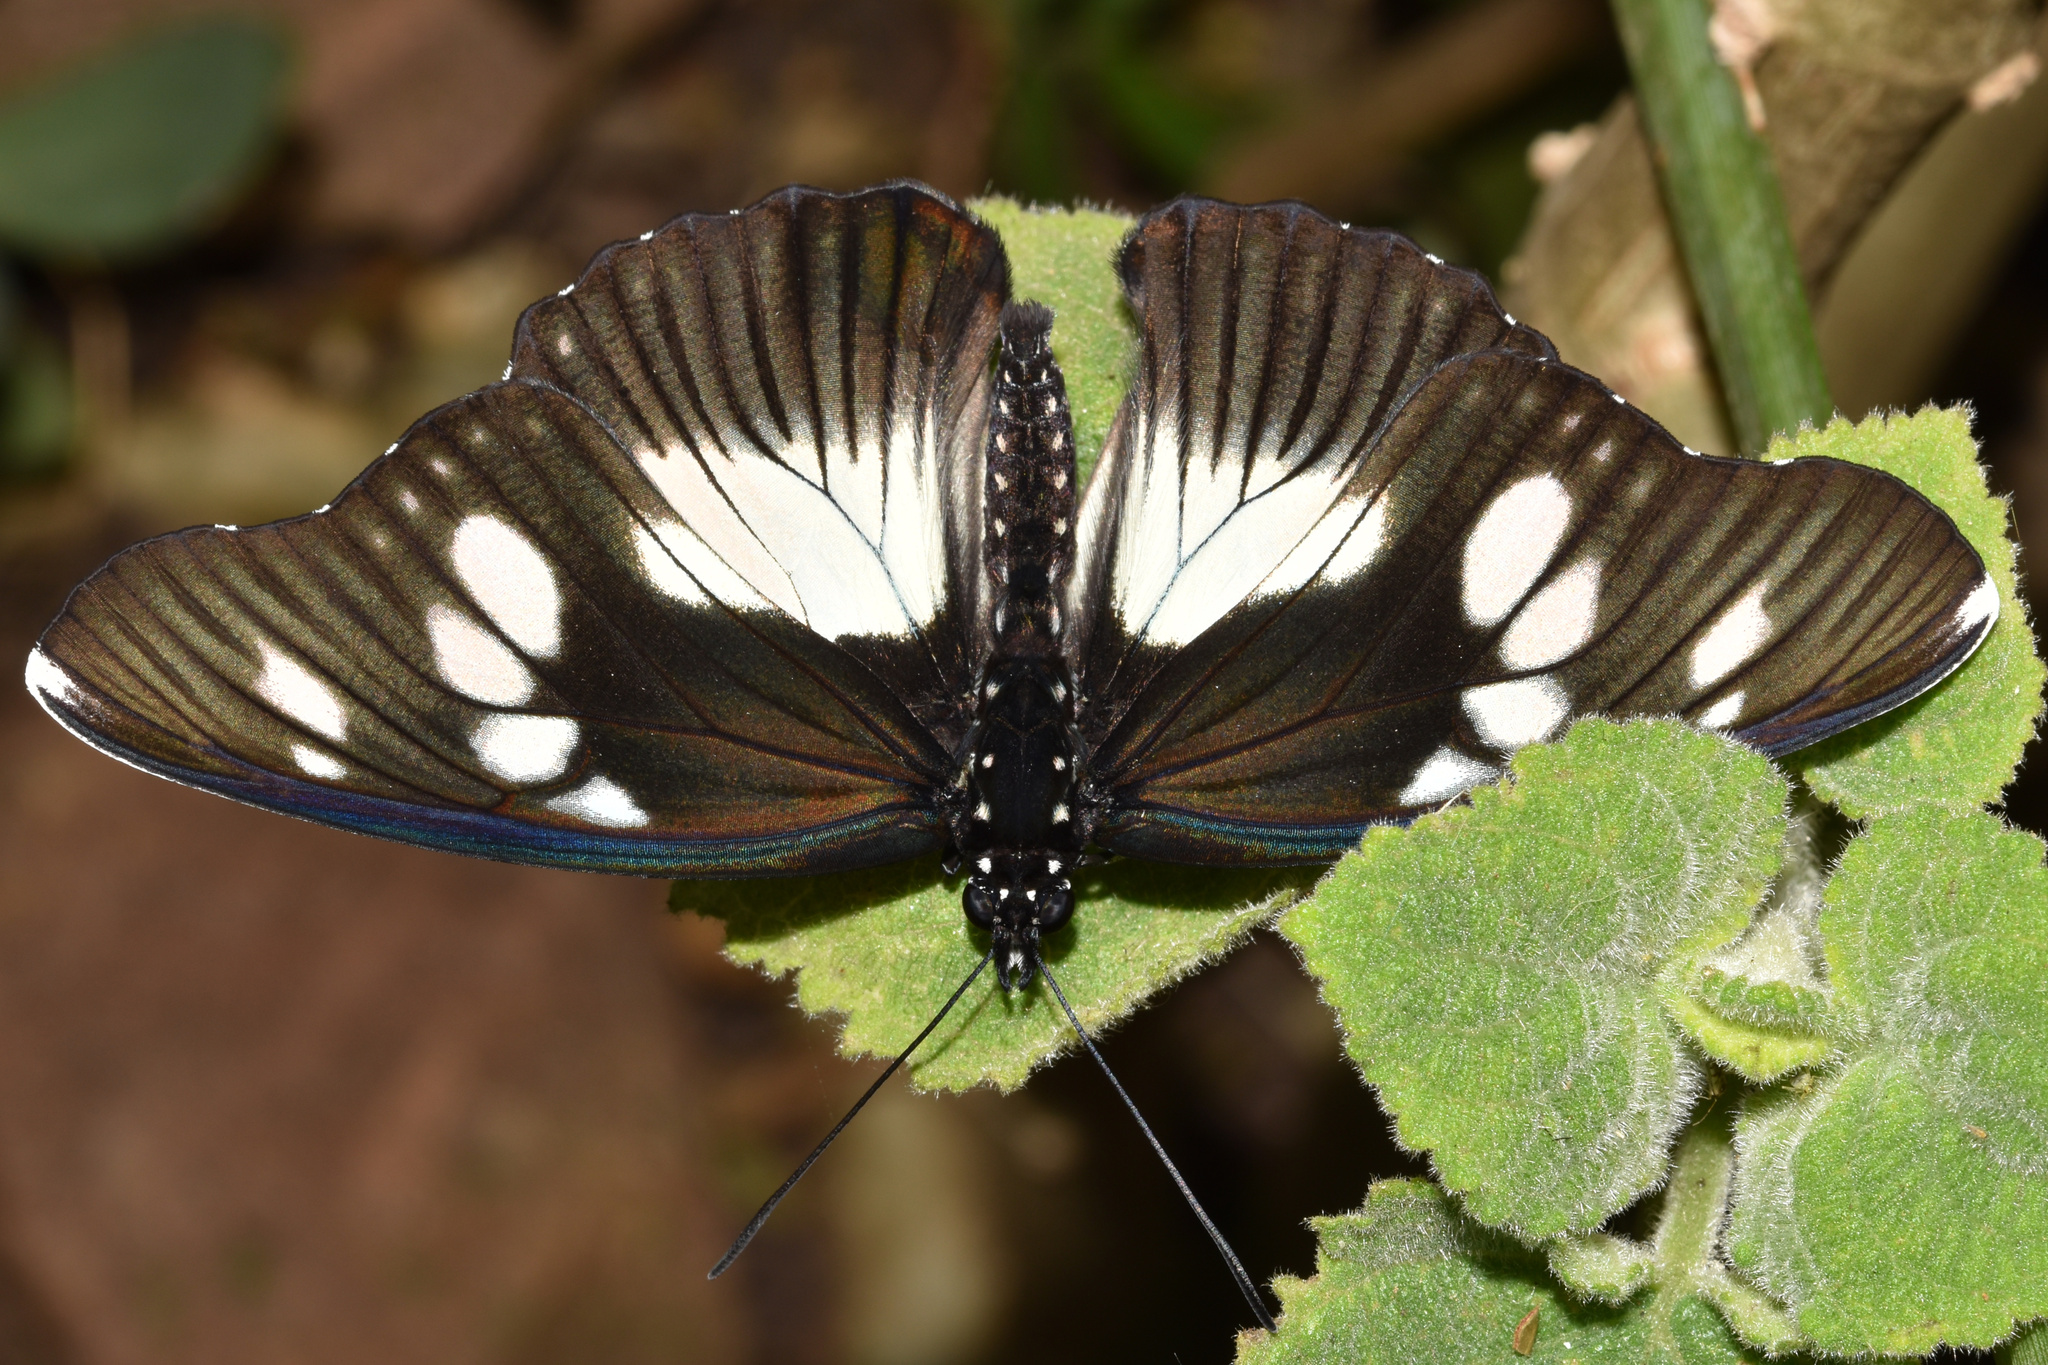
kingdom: Animalia
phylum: Arthropoda
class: Insecta
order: Lepidoptera
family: Nymphalidae
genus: Chloropoea
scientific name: Chloropoea lucretia
